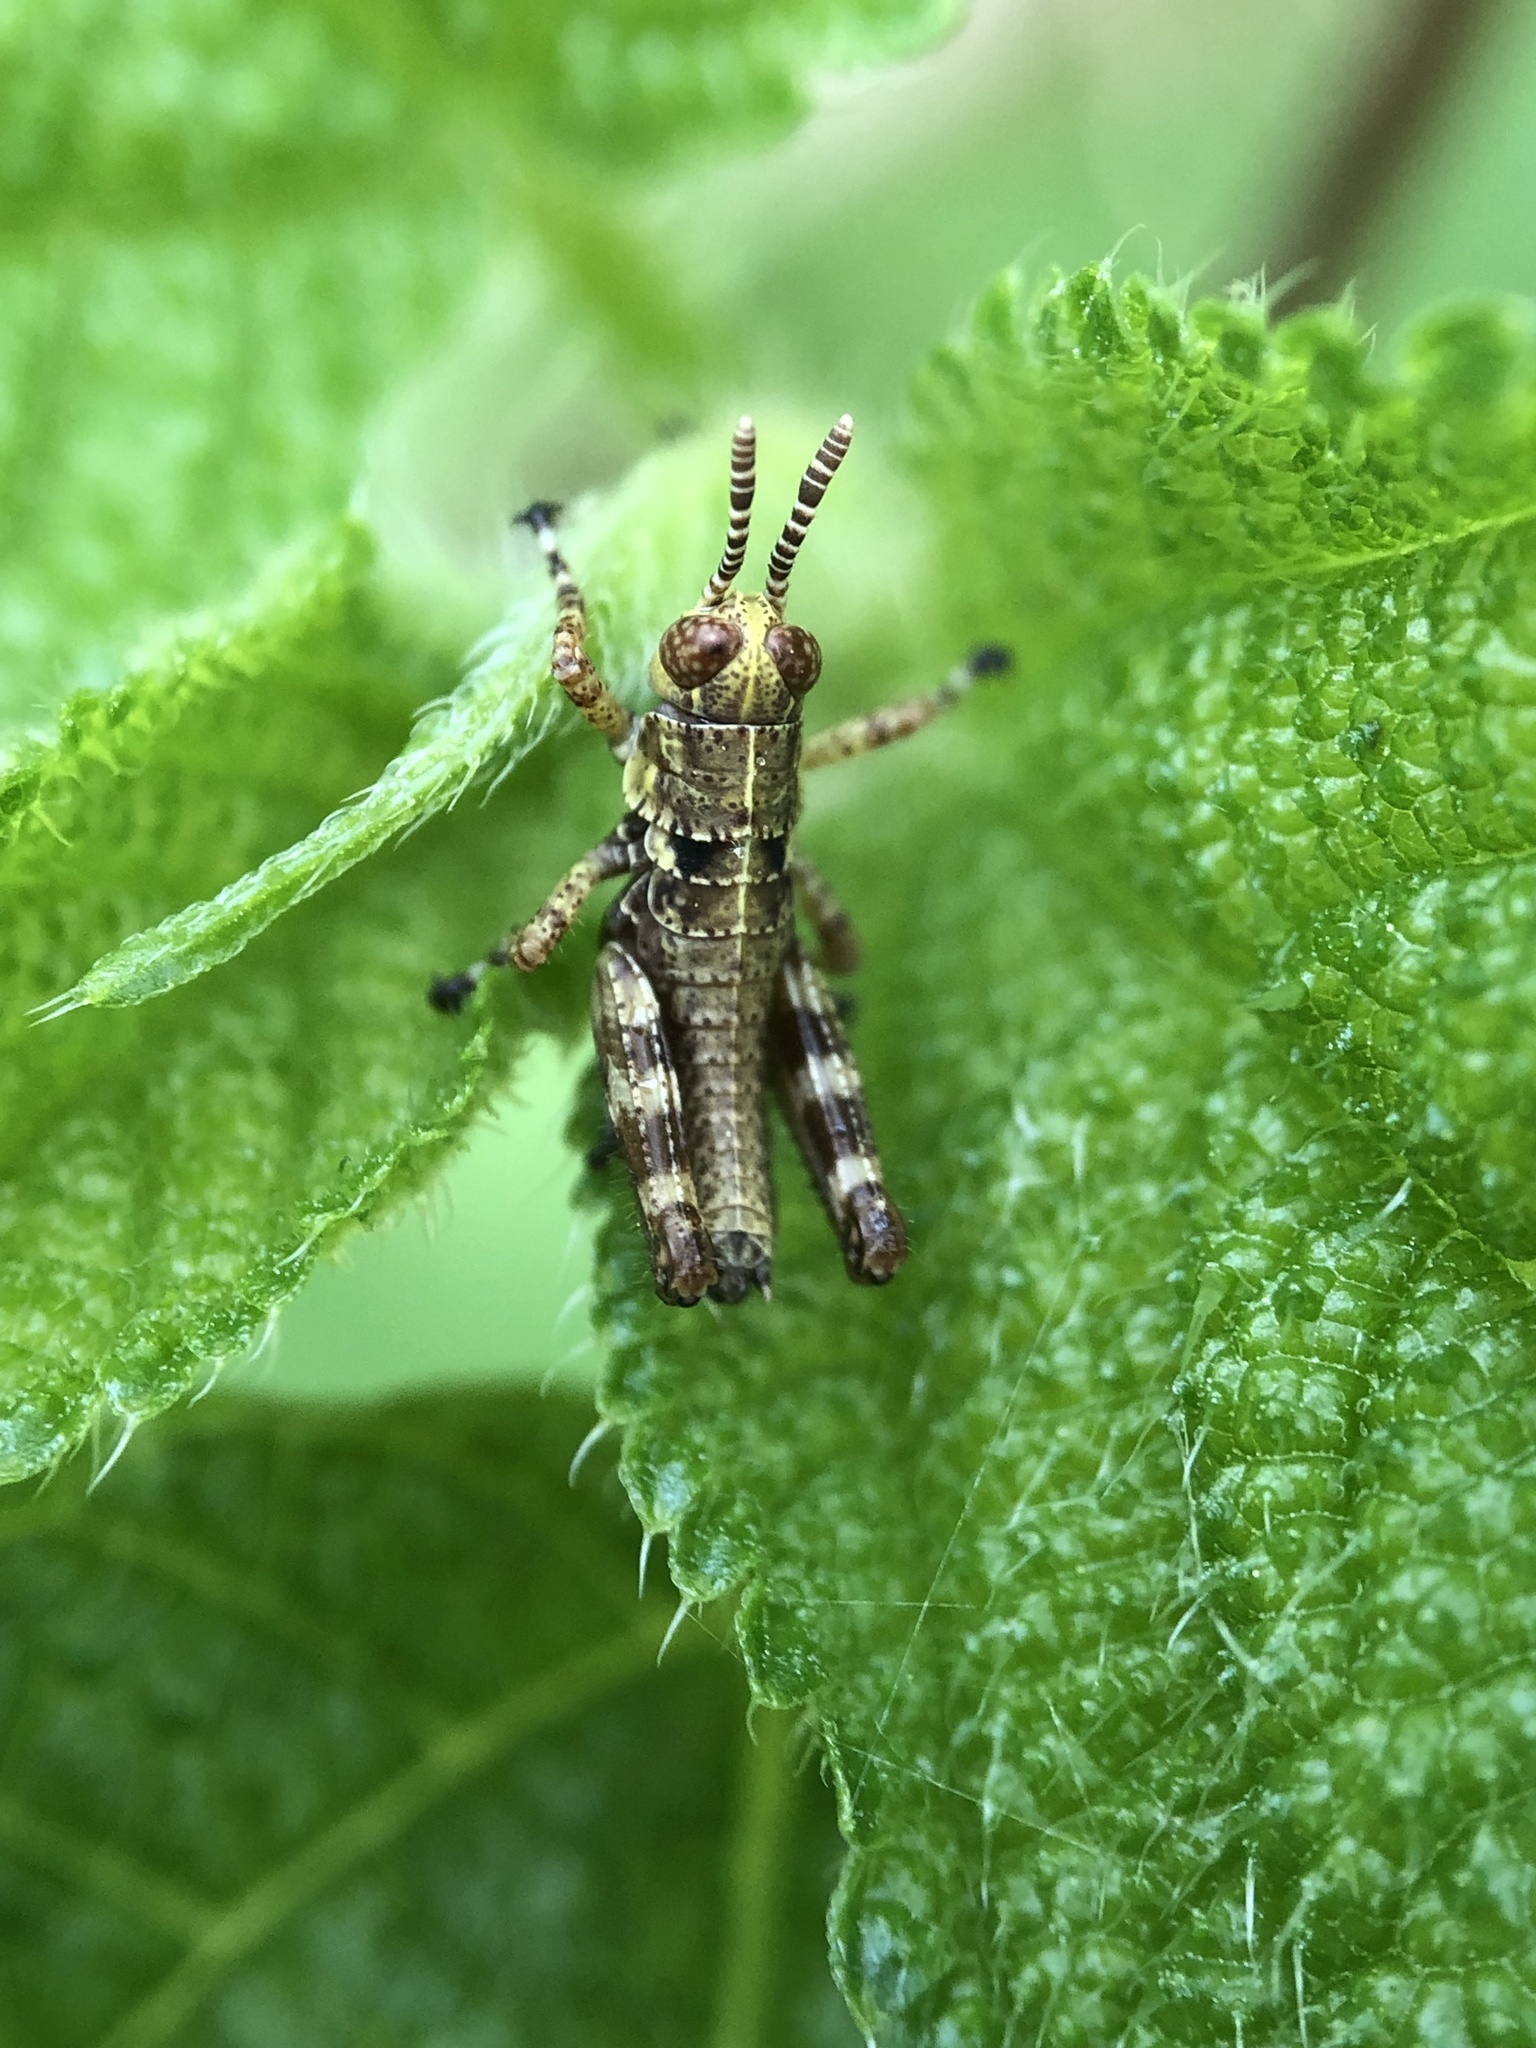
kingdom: Animalia
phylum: Arthropoda
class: Insecta
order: Orthoptera
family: Acrididae
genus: Booneacris
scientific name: Booneacris glacialis
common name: Wingless mountain grasshopper
